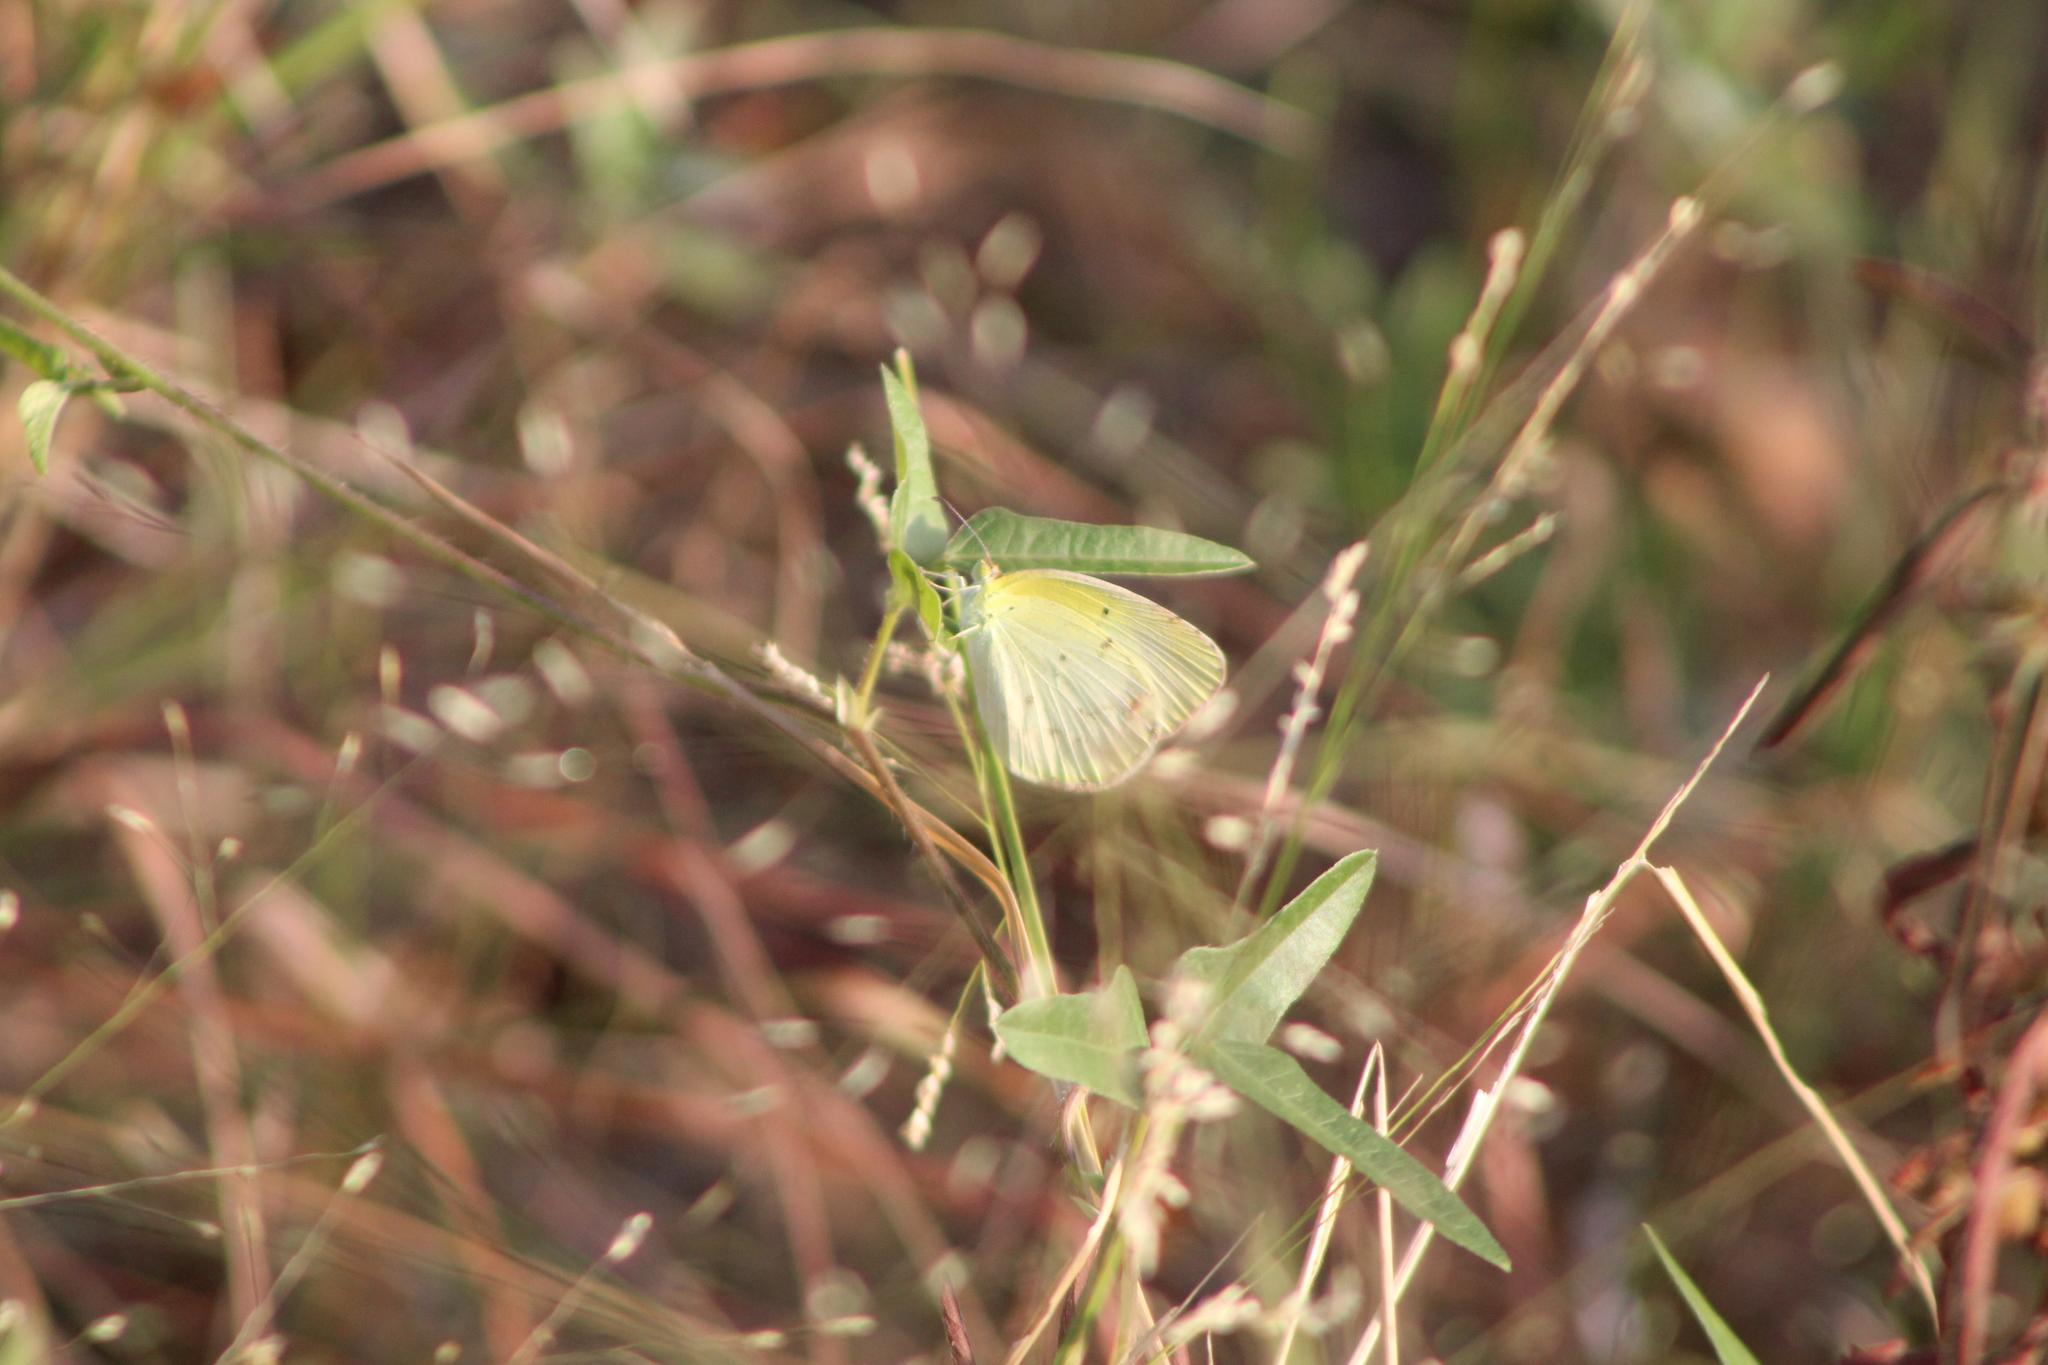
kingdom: Animalia
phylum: Arthropoda
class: Insecta
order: Lepidoptera
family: Pieridae
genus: Pyrisitia
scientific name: Pyrisitia lisa
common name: Little yellow
